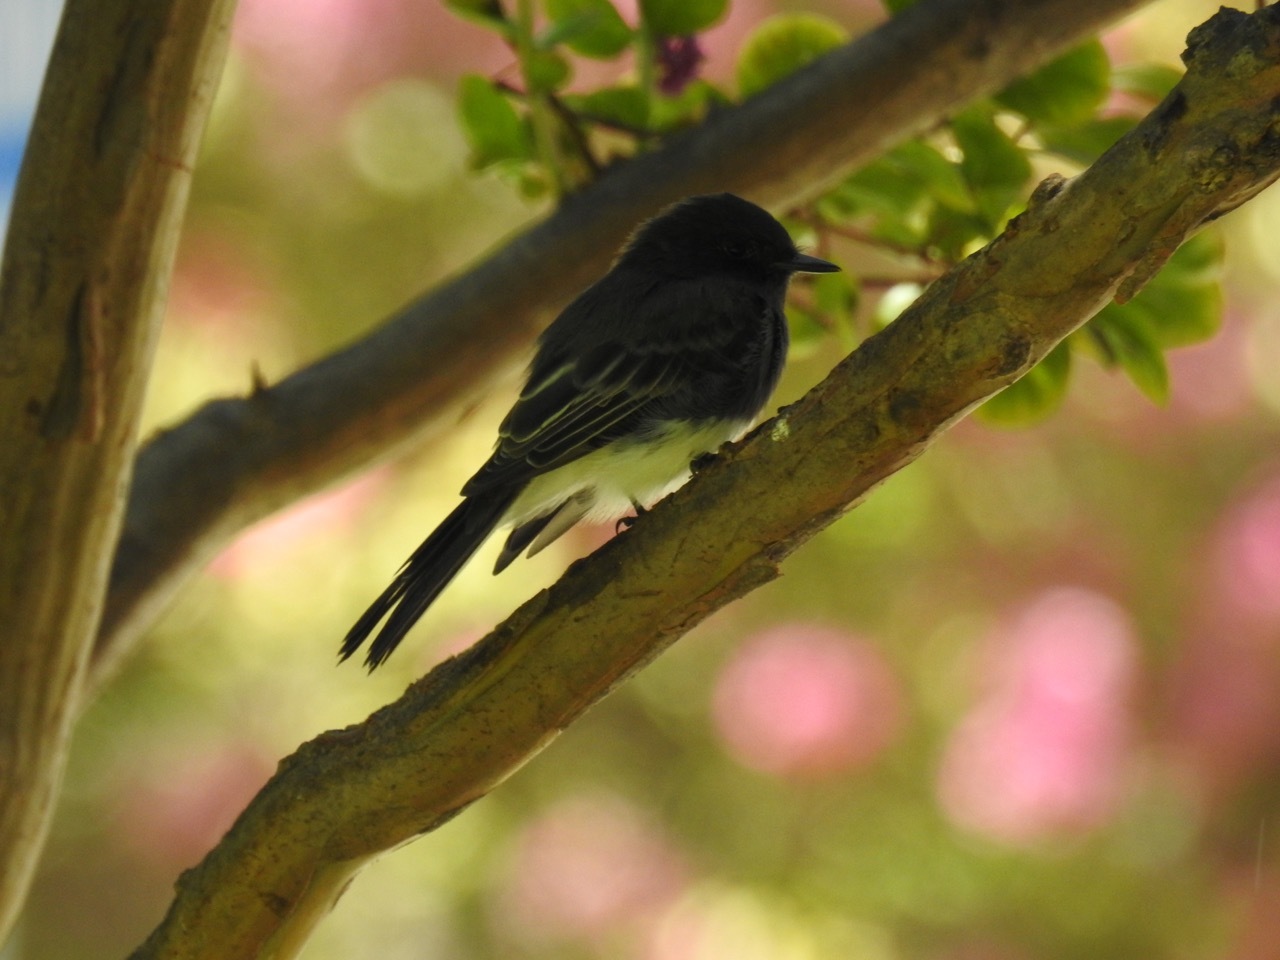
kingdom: Animalia
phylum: Chordata
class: Aves
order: Passeriformes
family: Tyrannidae
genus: Sayornis
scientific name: Sayornis nigricans
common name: Black phoebe
